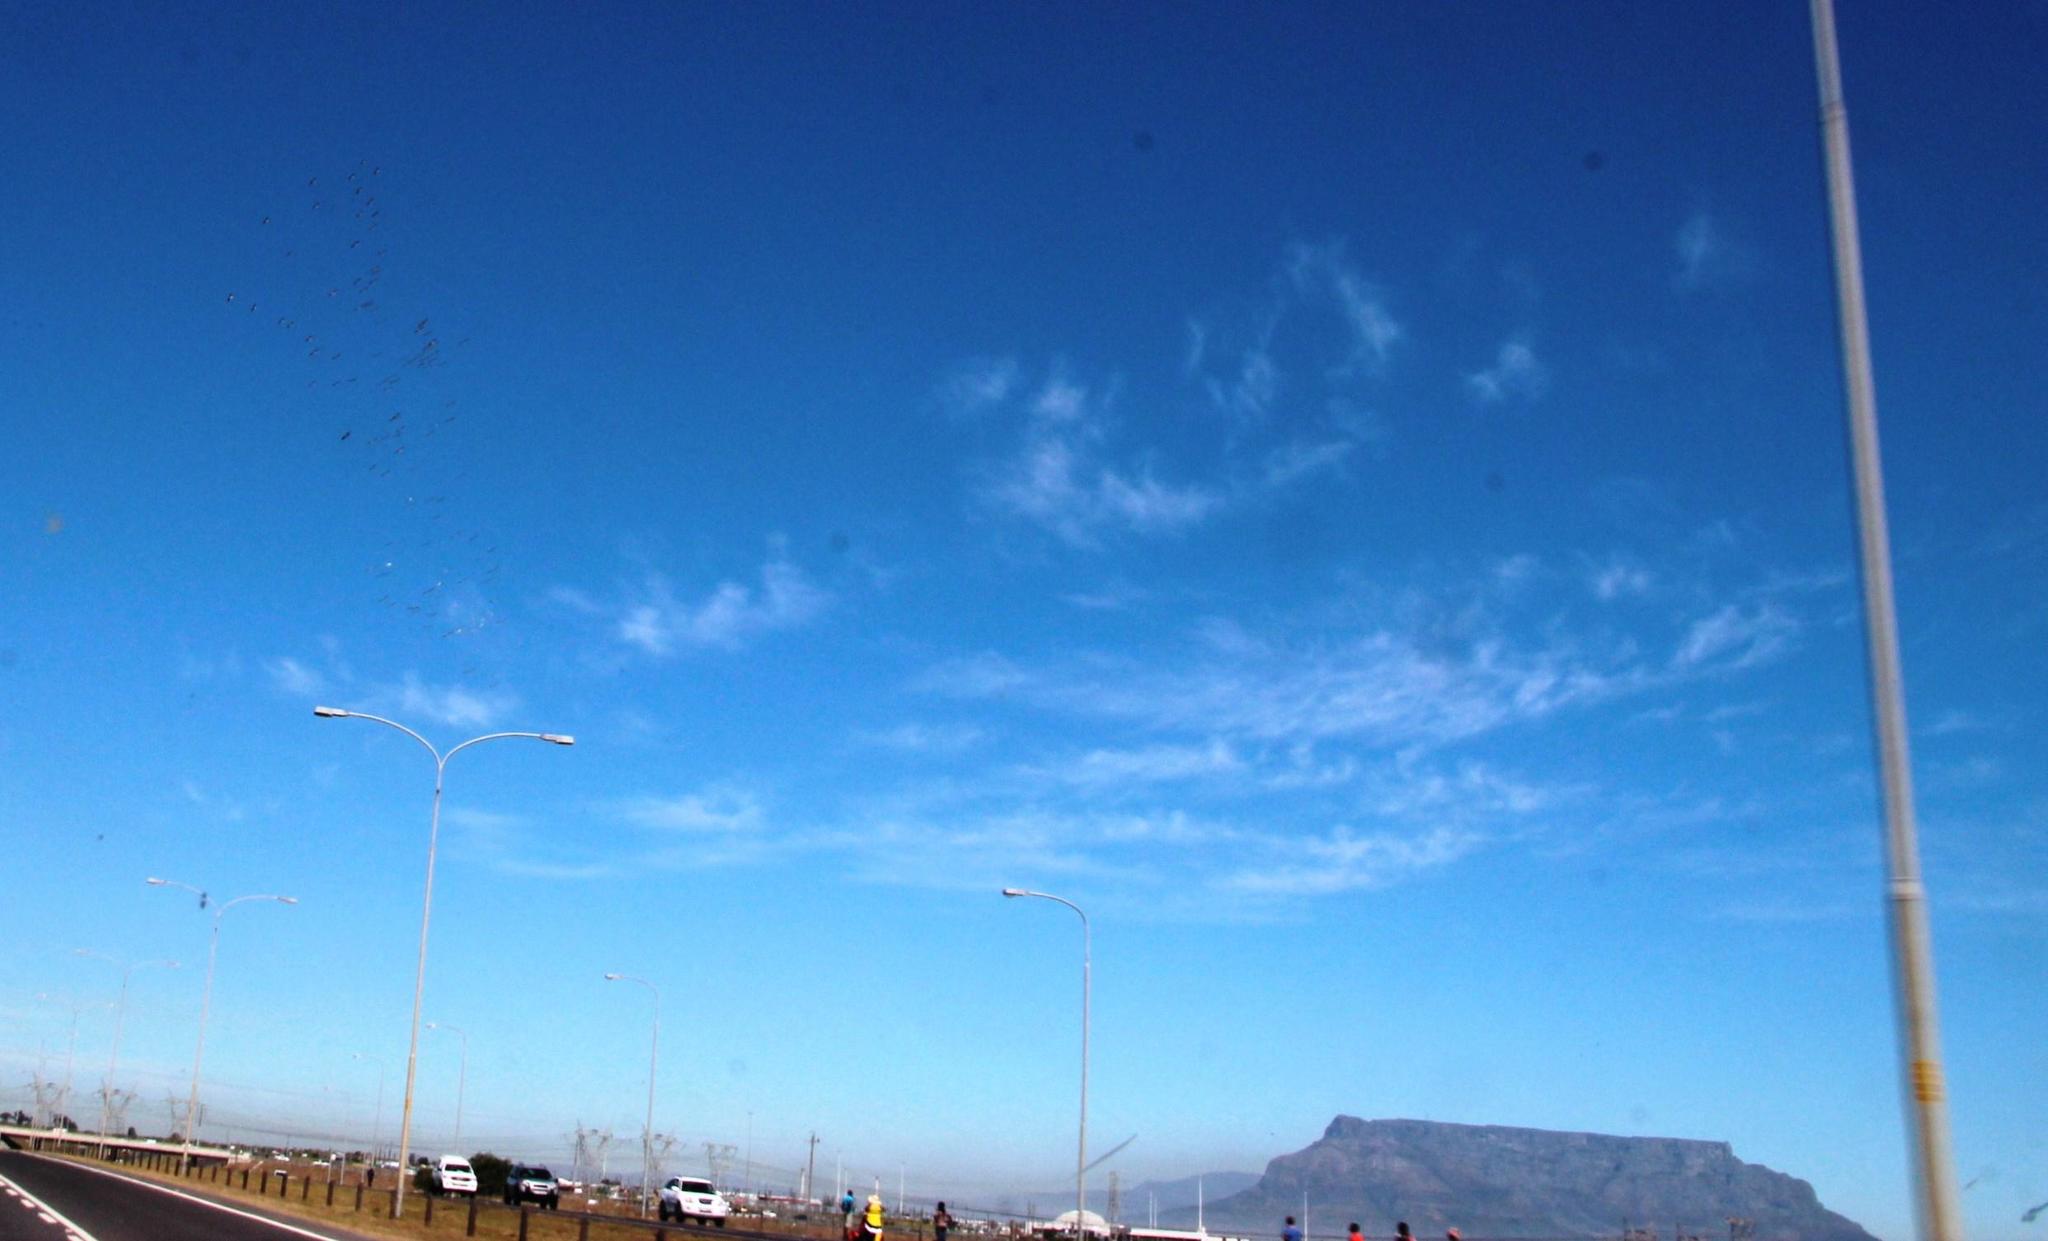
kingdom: Animalia
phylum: Chordata
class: Aves
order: Pelecaniformes
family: Pelecanidae
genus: Pelecanus
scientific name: Pelecanus onocrotalus
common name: Great white pelican
